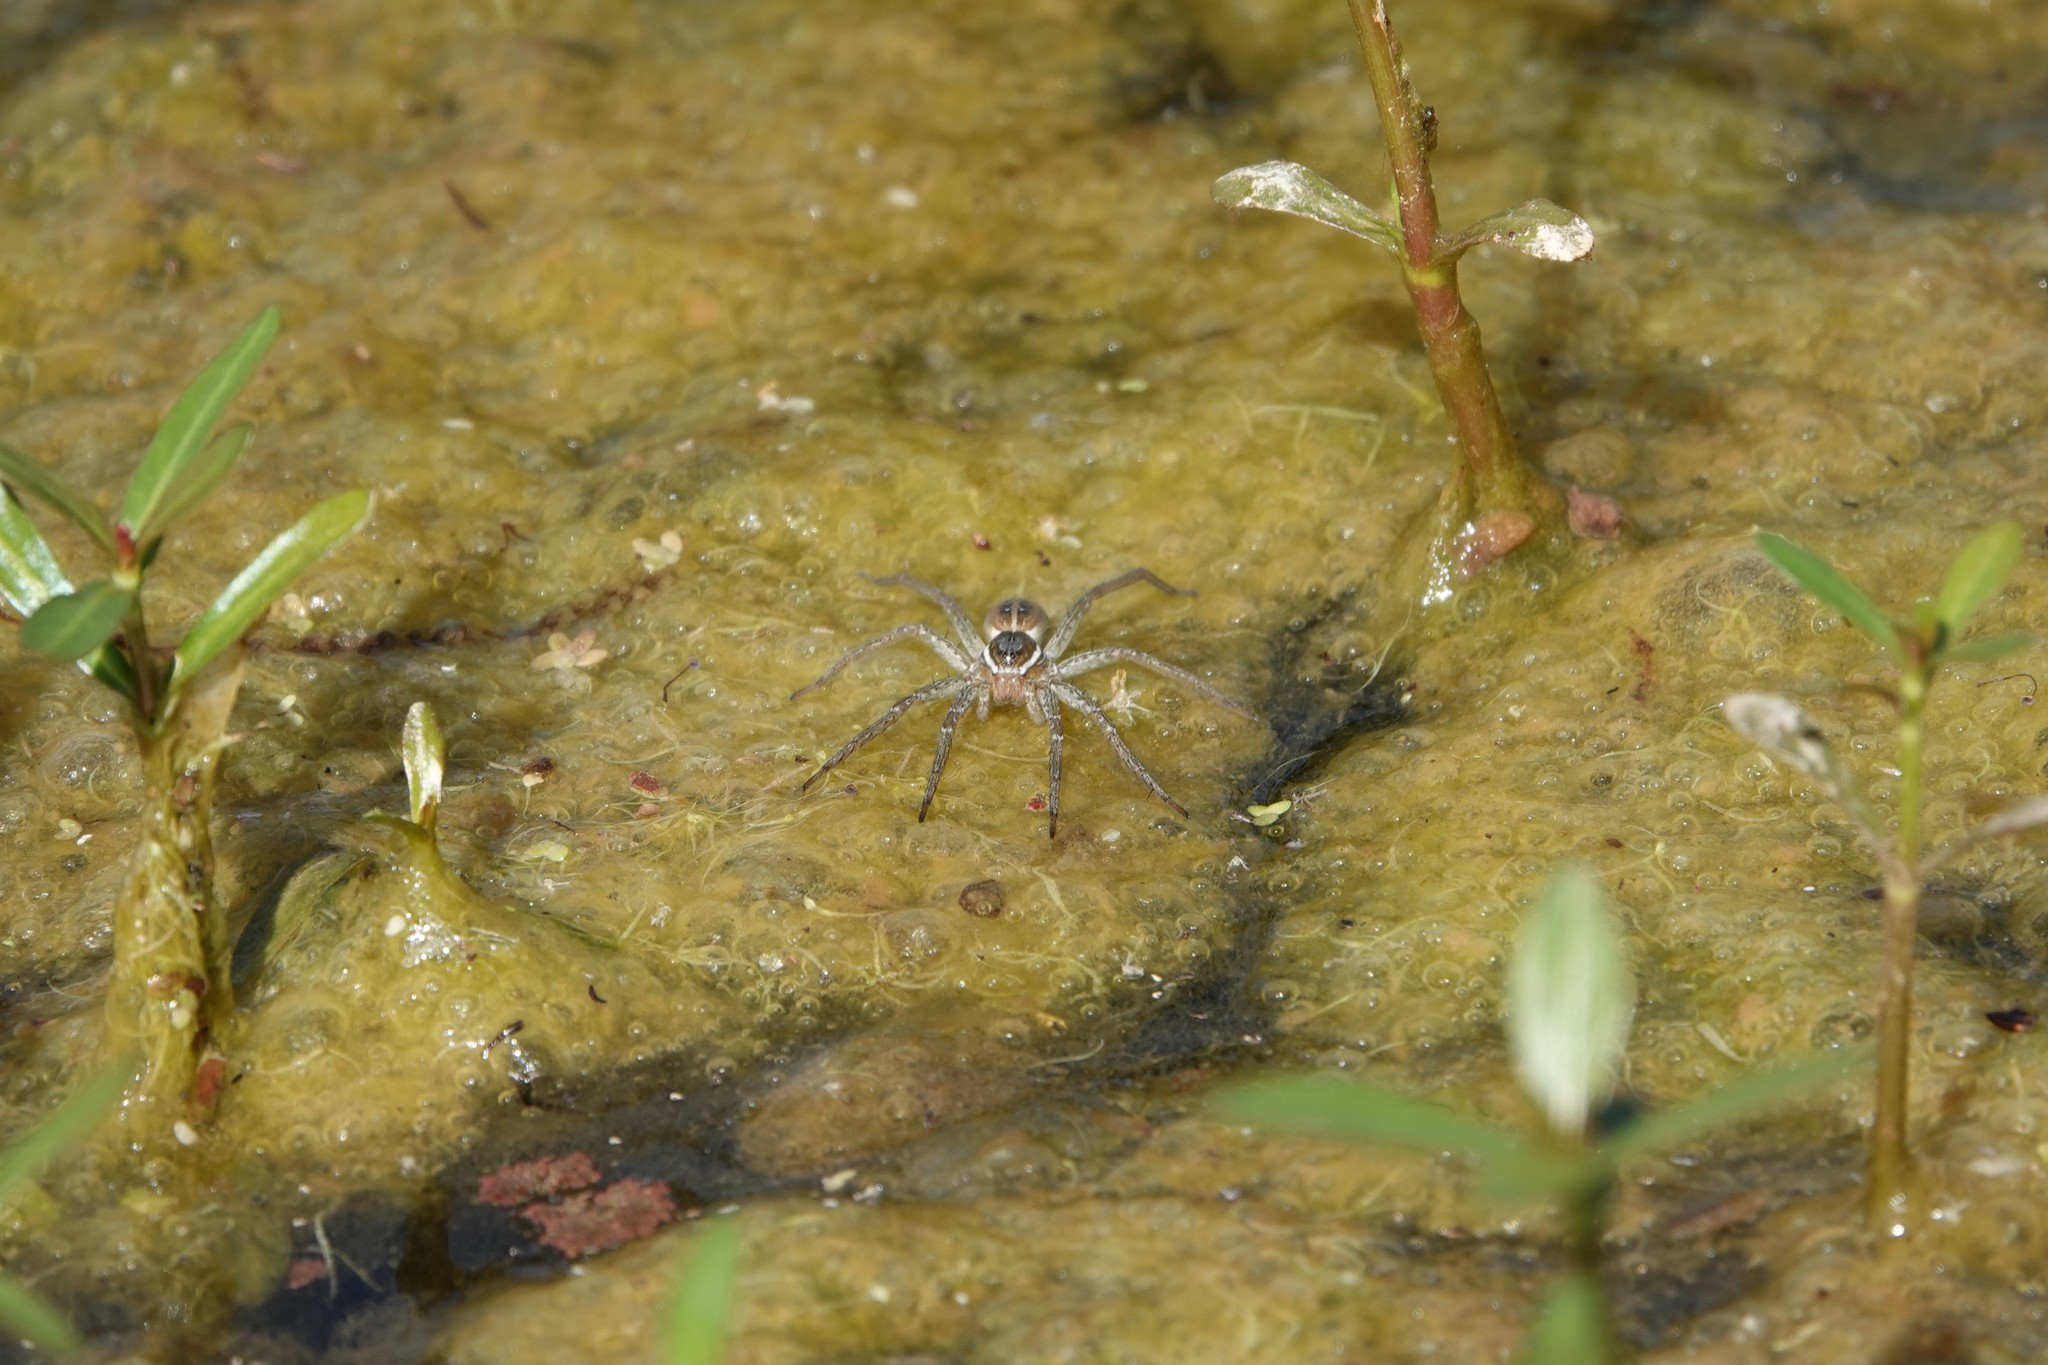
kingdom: Animalia
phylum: Arthropoda
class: Arachnida
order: Araneae
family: Pisauridae
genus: Dolomedes
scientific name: Dolomedes triton
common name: Six-spotted fishing spider
